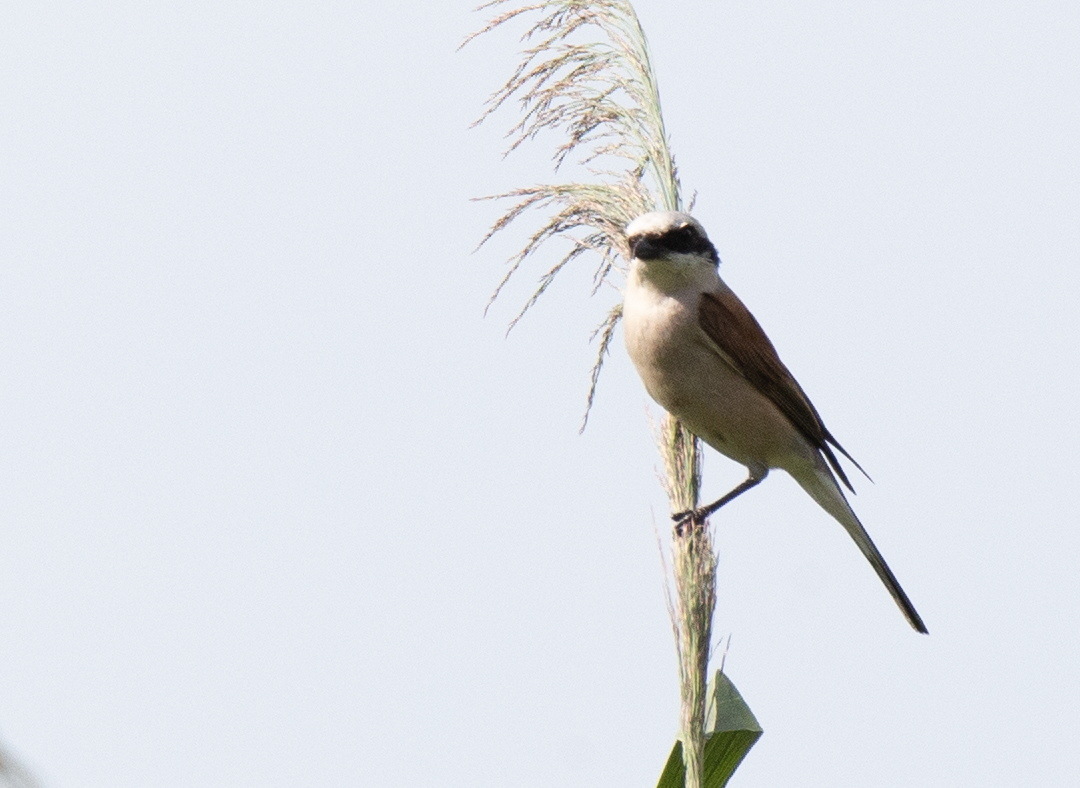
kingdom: Animalia
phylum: Chordata
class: Aves
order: Passeriformes
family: Laniidae
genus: Lanius
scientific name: Lanius collurio
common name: Red-backed shrike
